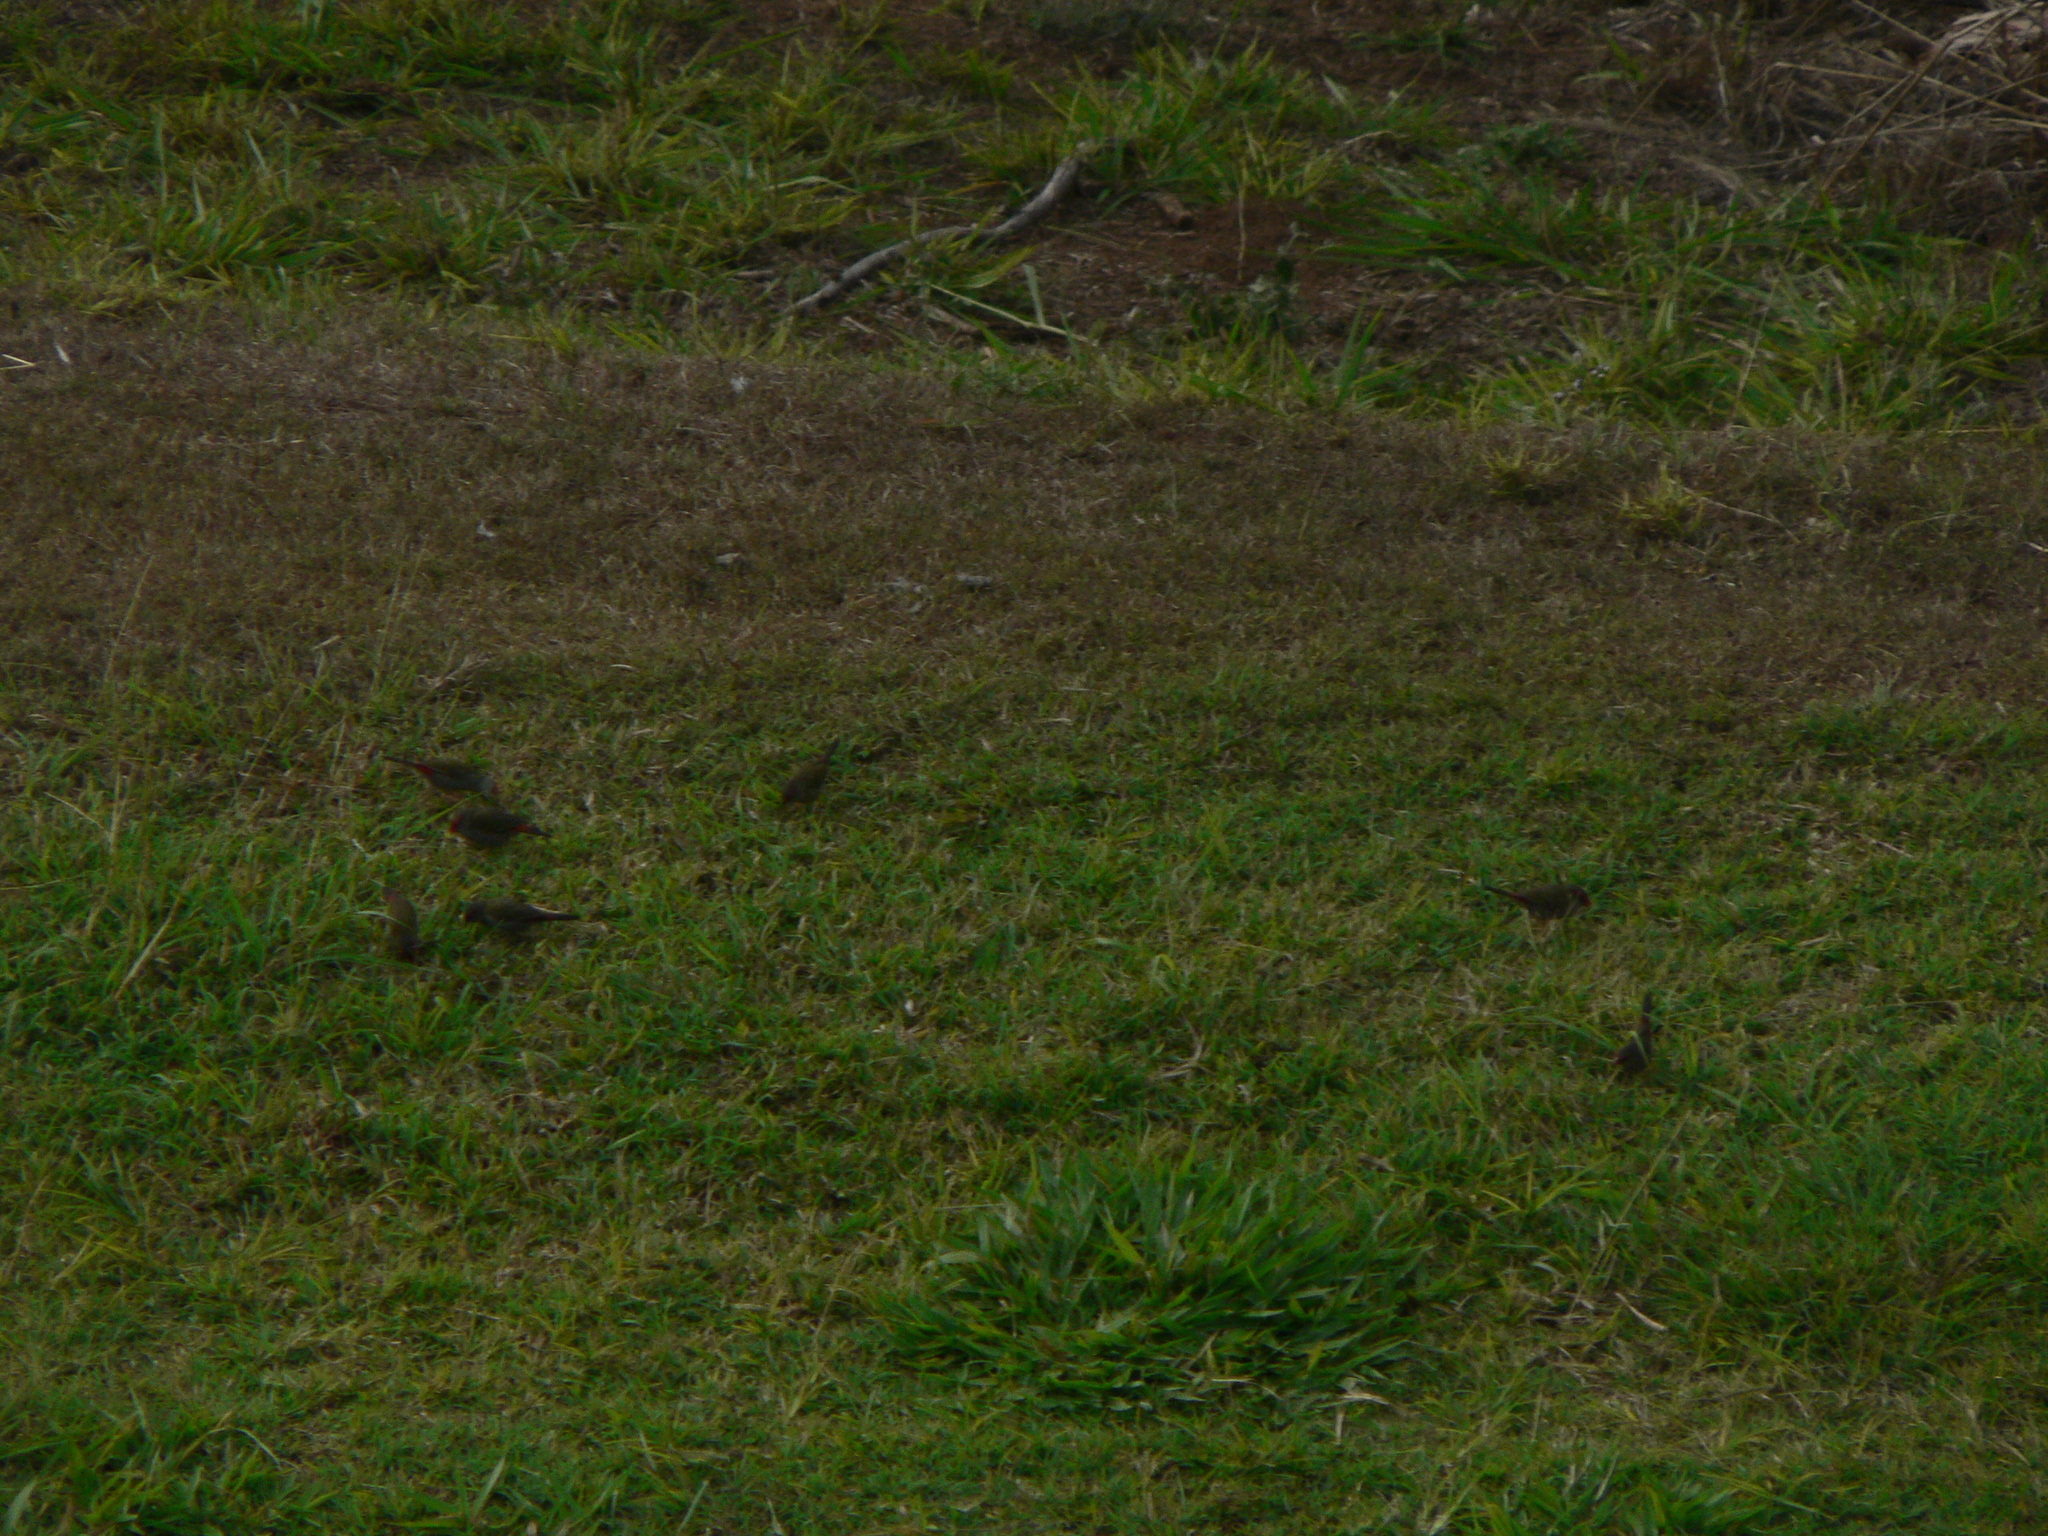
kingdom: Animalia
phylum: Chordata
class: Aves
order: Passeriformes
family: Estrildidae
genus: Neochmia
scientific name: Neochmia temporalis
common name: Red-browed finch
